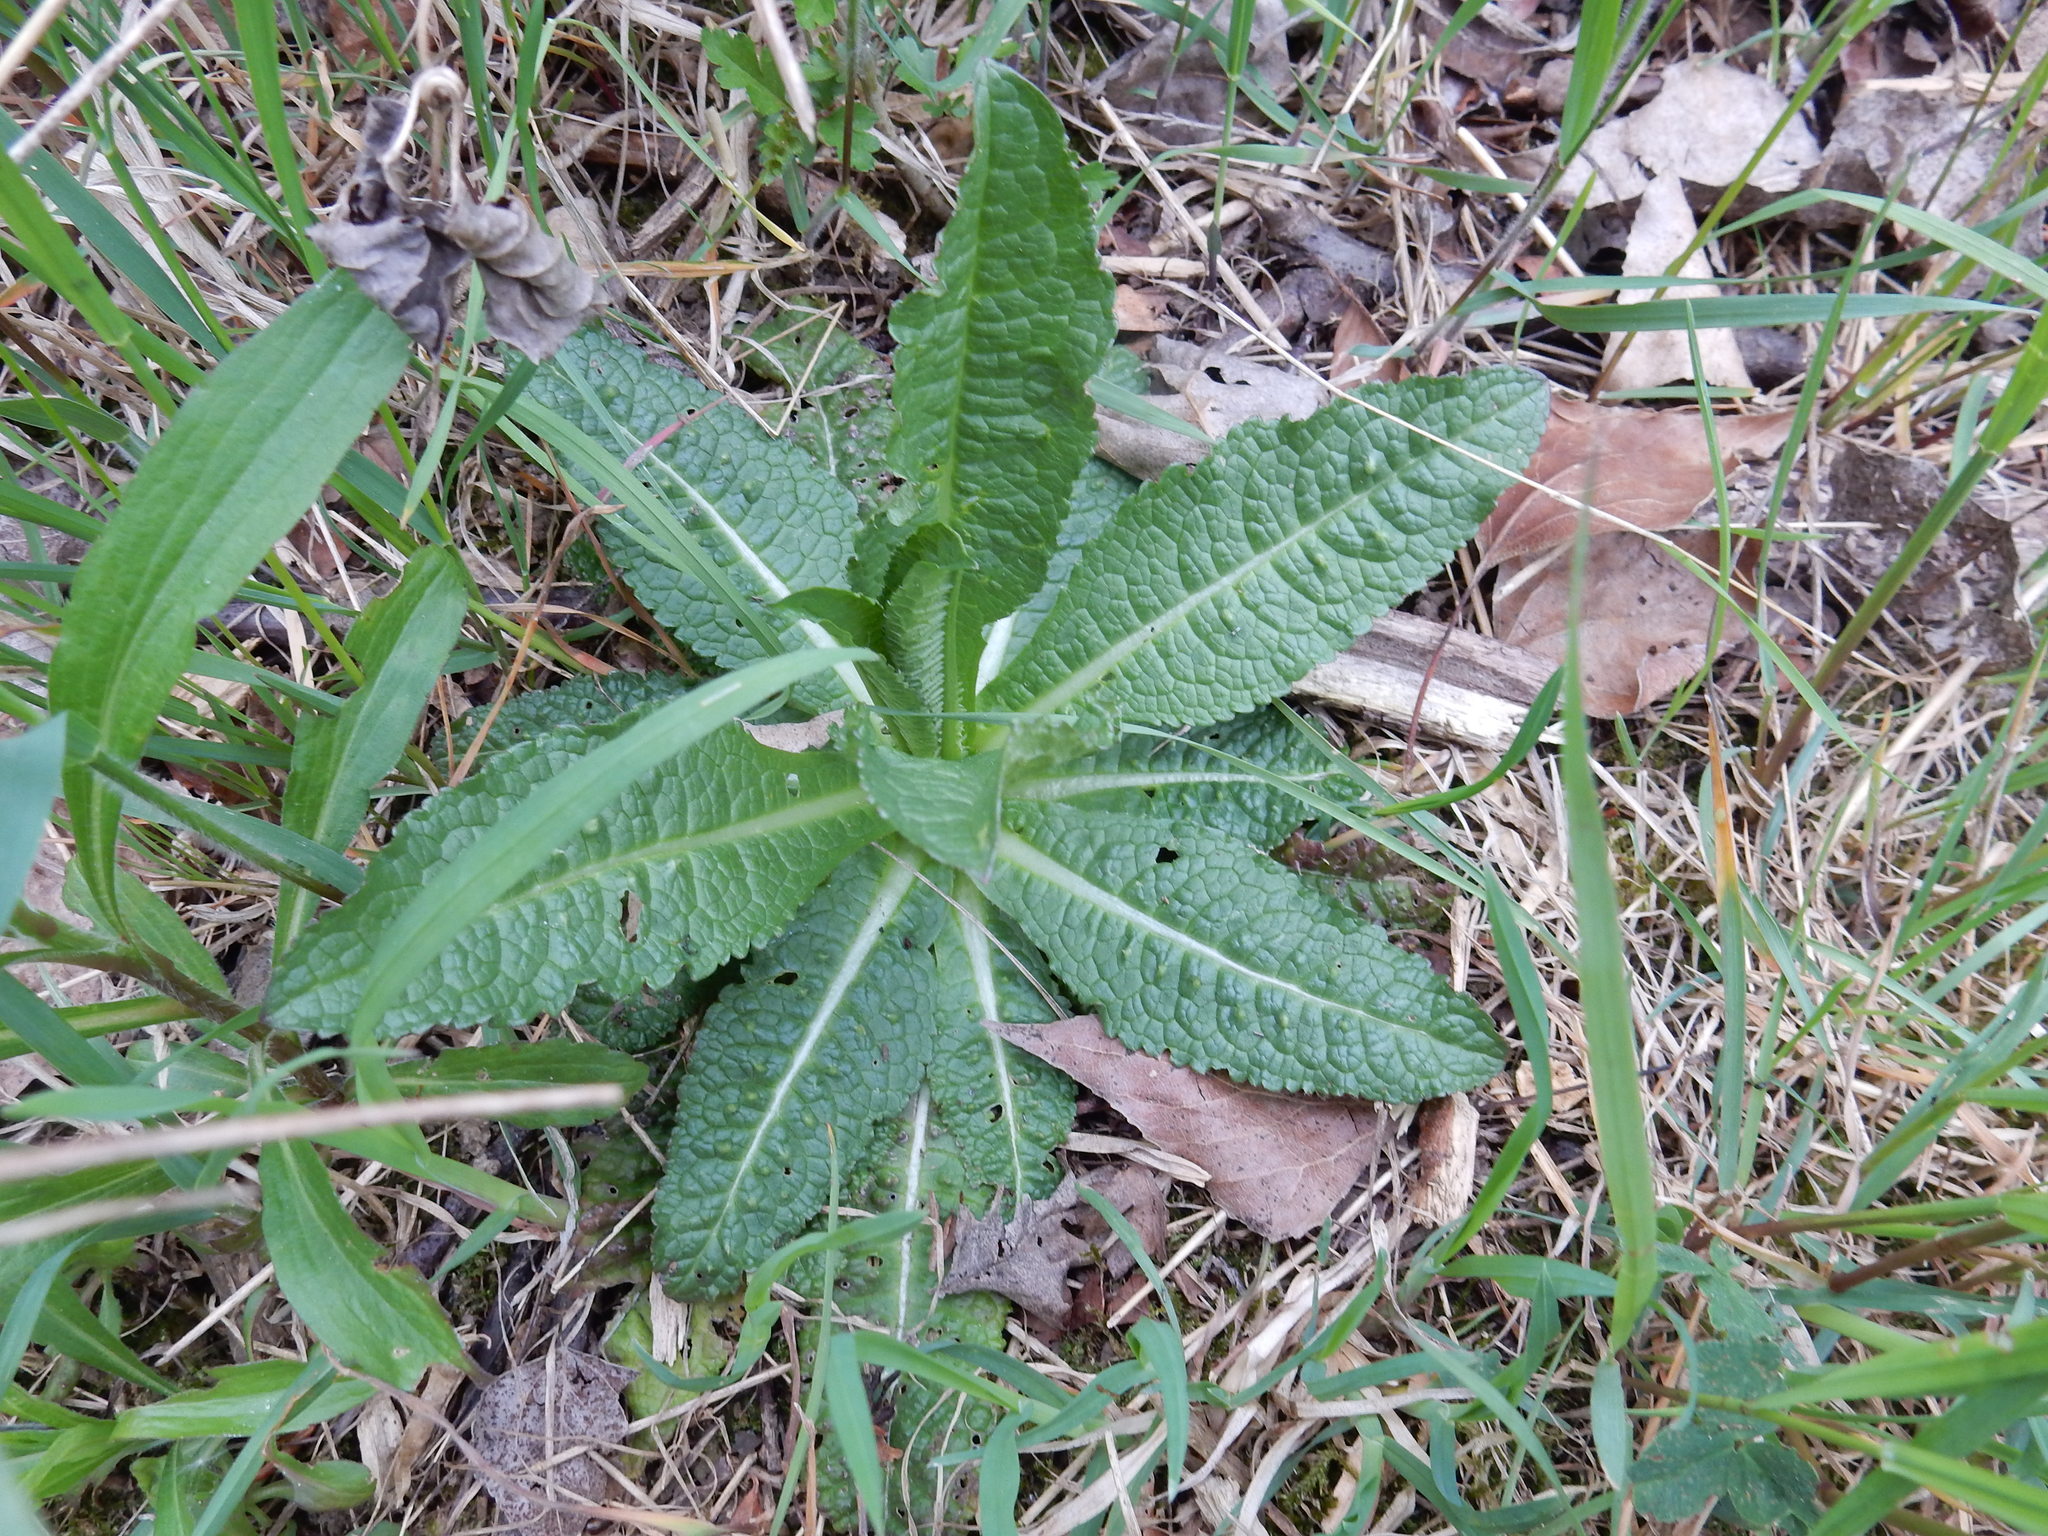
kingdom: Plantae
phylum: Tracheophyta
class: Magnoliopsida
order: Dipsacales
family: Caprifoliaceae
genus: Dipsacus
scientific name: Dipsacus fullonum
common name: Teasel
